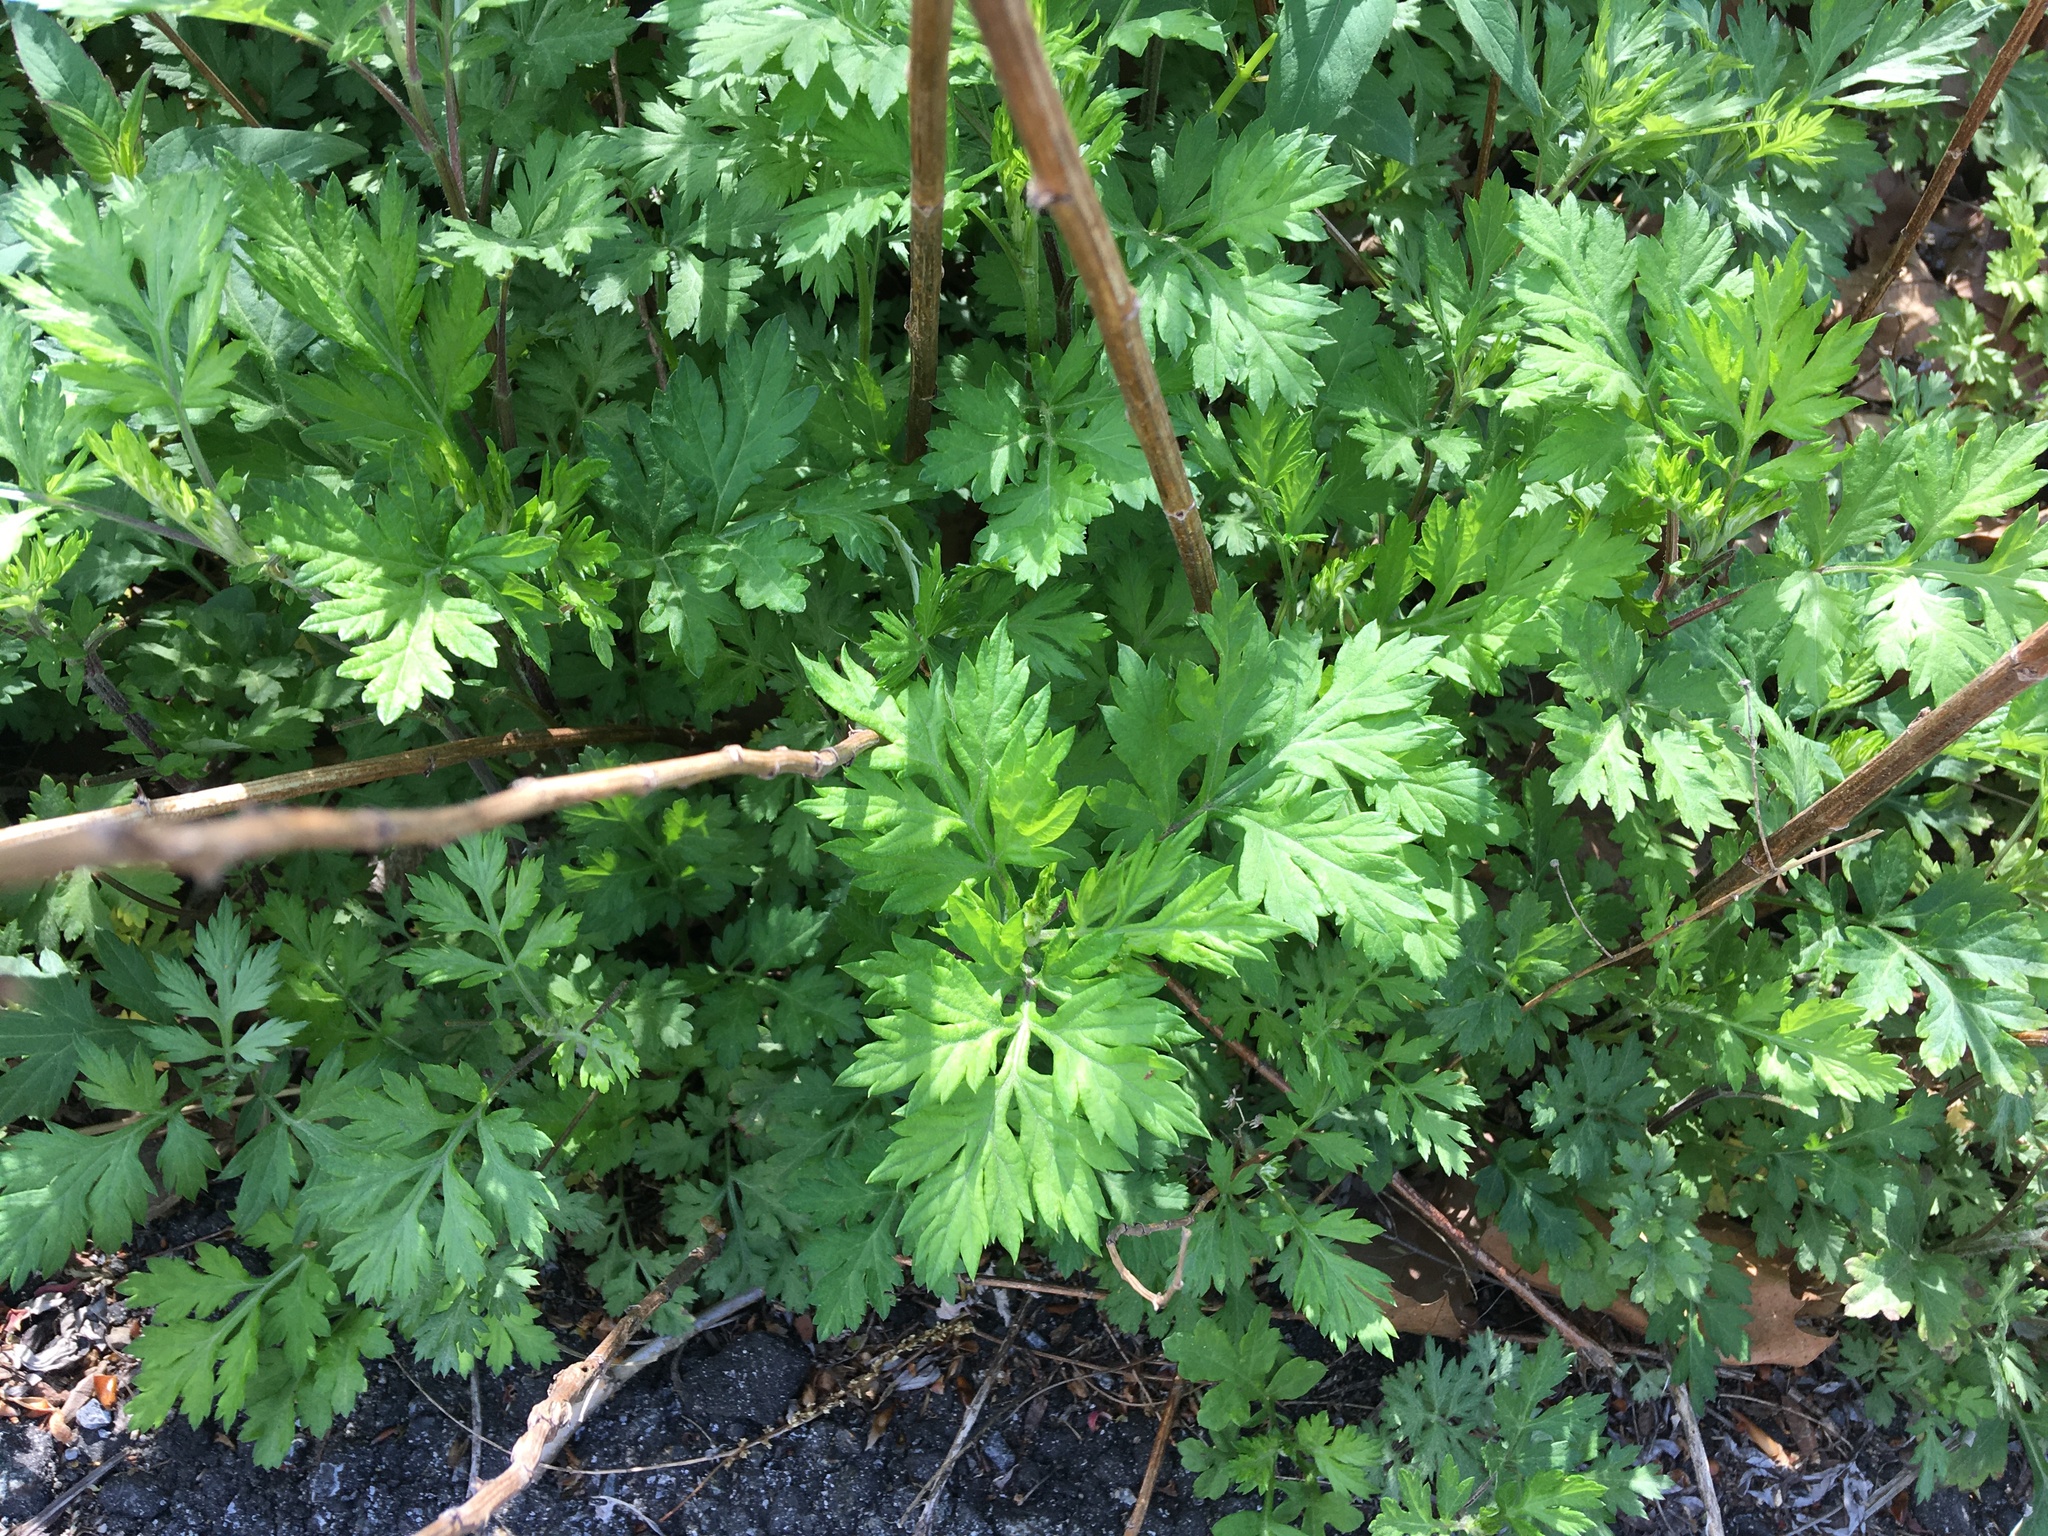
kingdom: Plantae
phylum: Tracheophyta
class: Magnoliopsida
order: Asterales
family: Asteraceae
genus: Artemisia
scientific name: Artemisia vulgaris
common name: Mugwort
